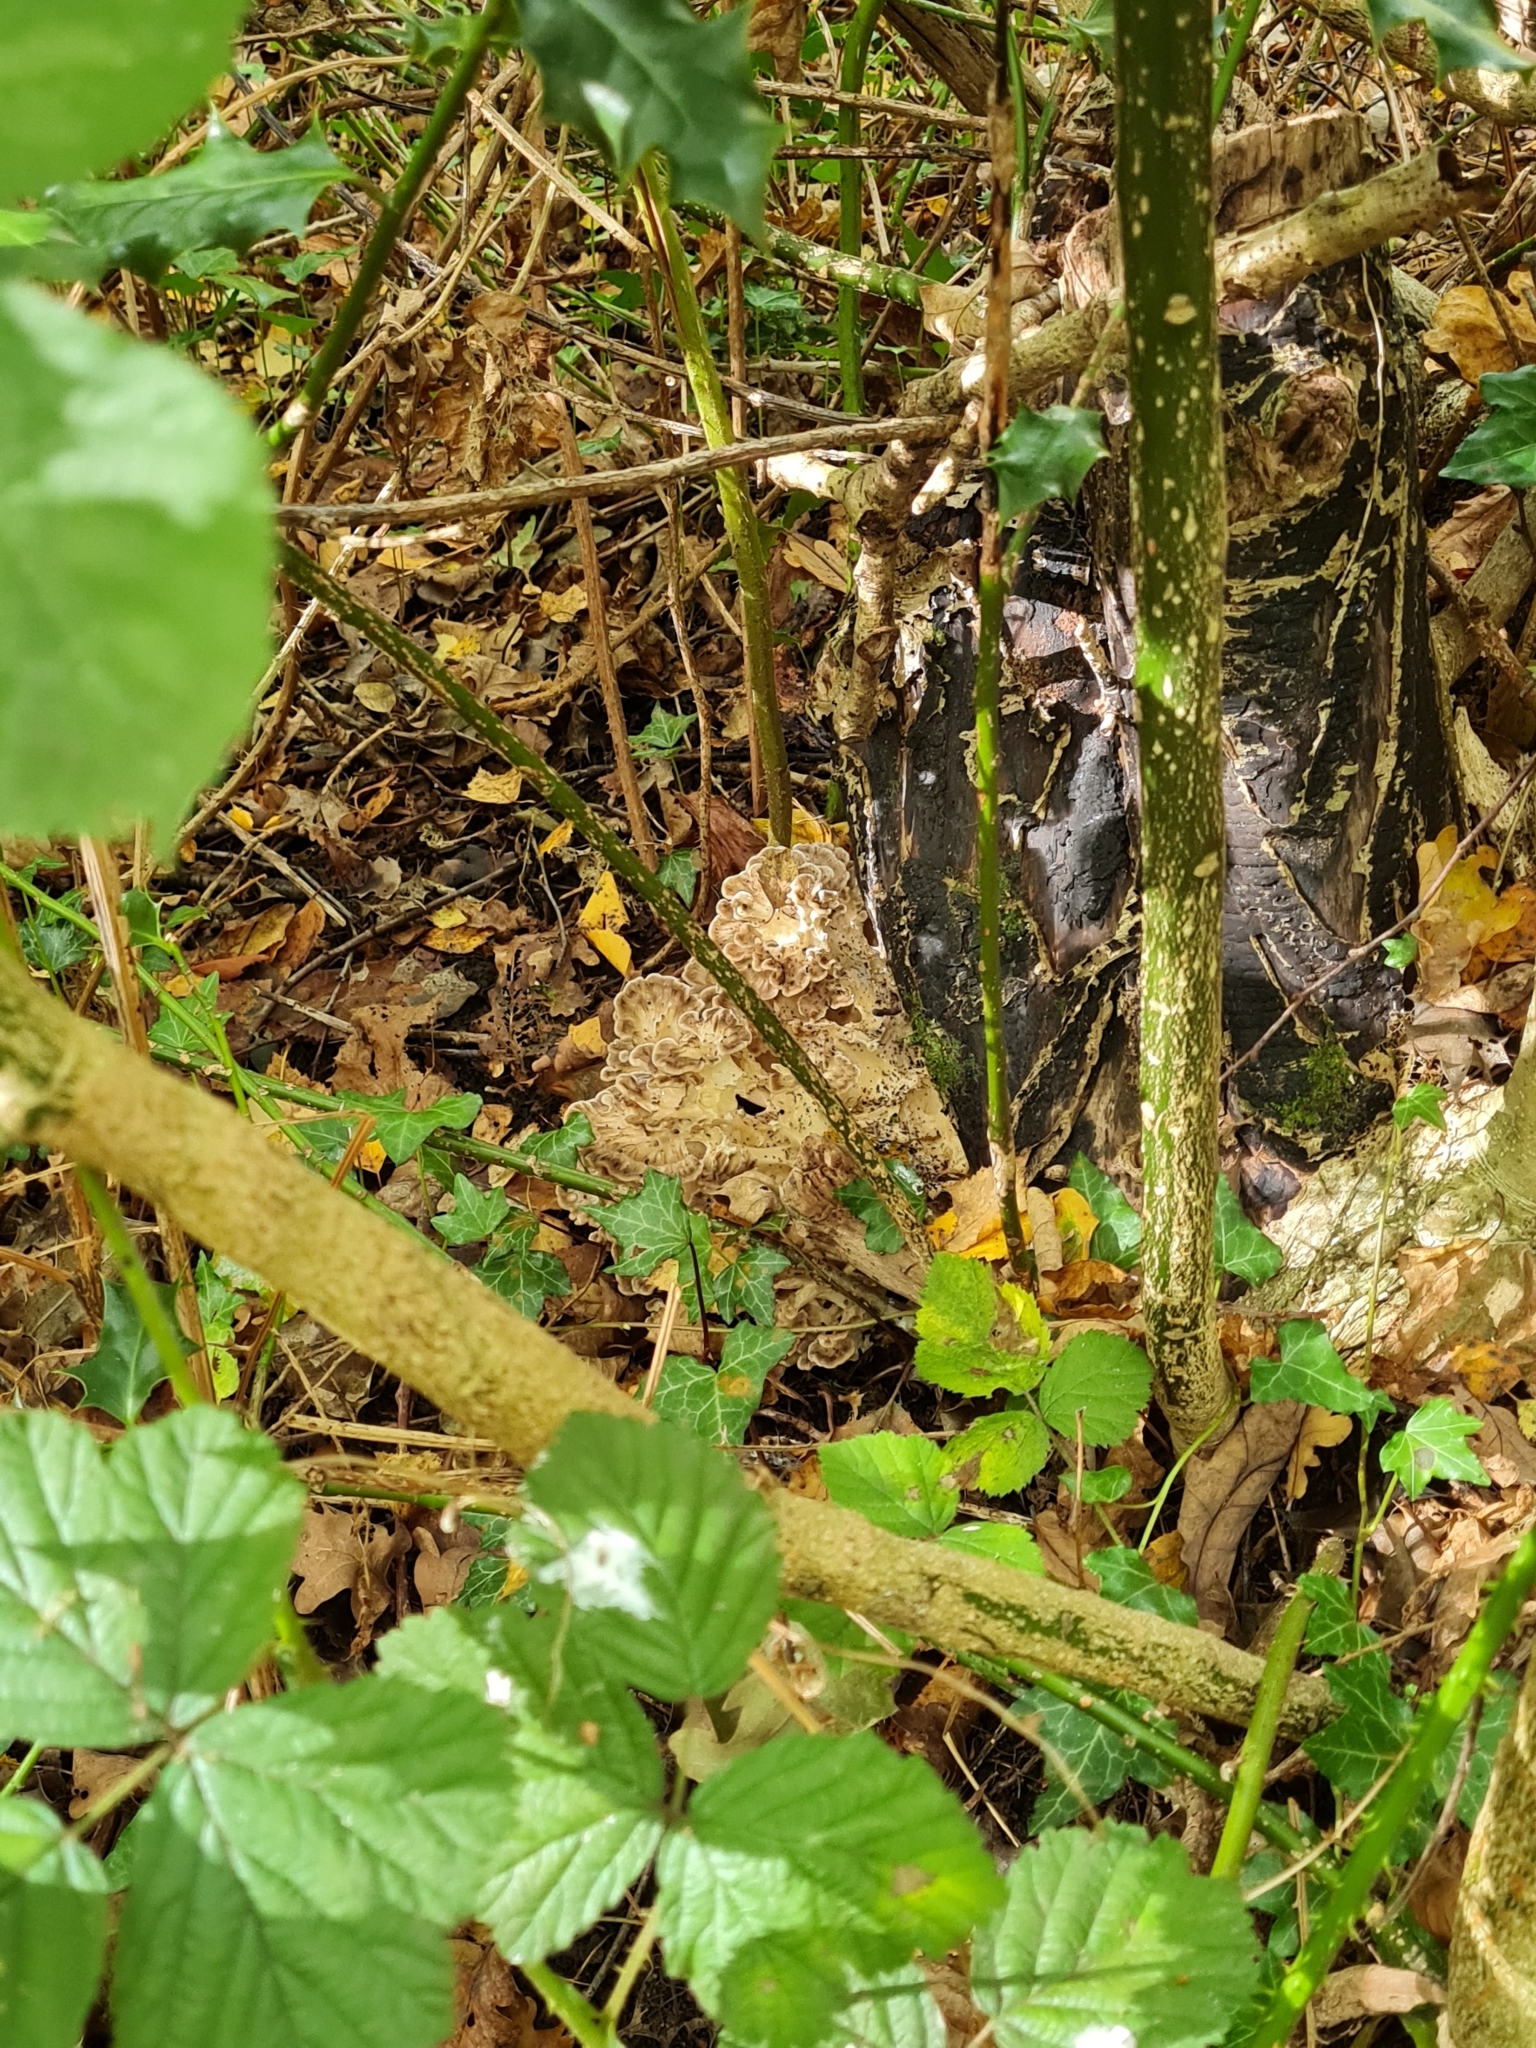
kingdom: Fungi
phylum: Basidiomycota
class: Agaricomycetes
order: Polyporales
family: Grifolaceae
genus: Grifola
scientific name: Grifola frondosa
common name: Hen of the woods
